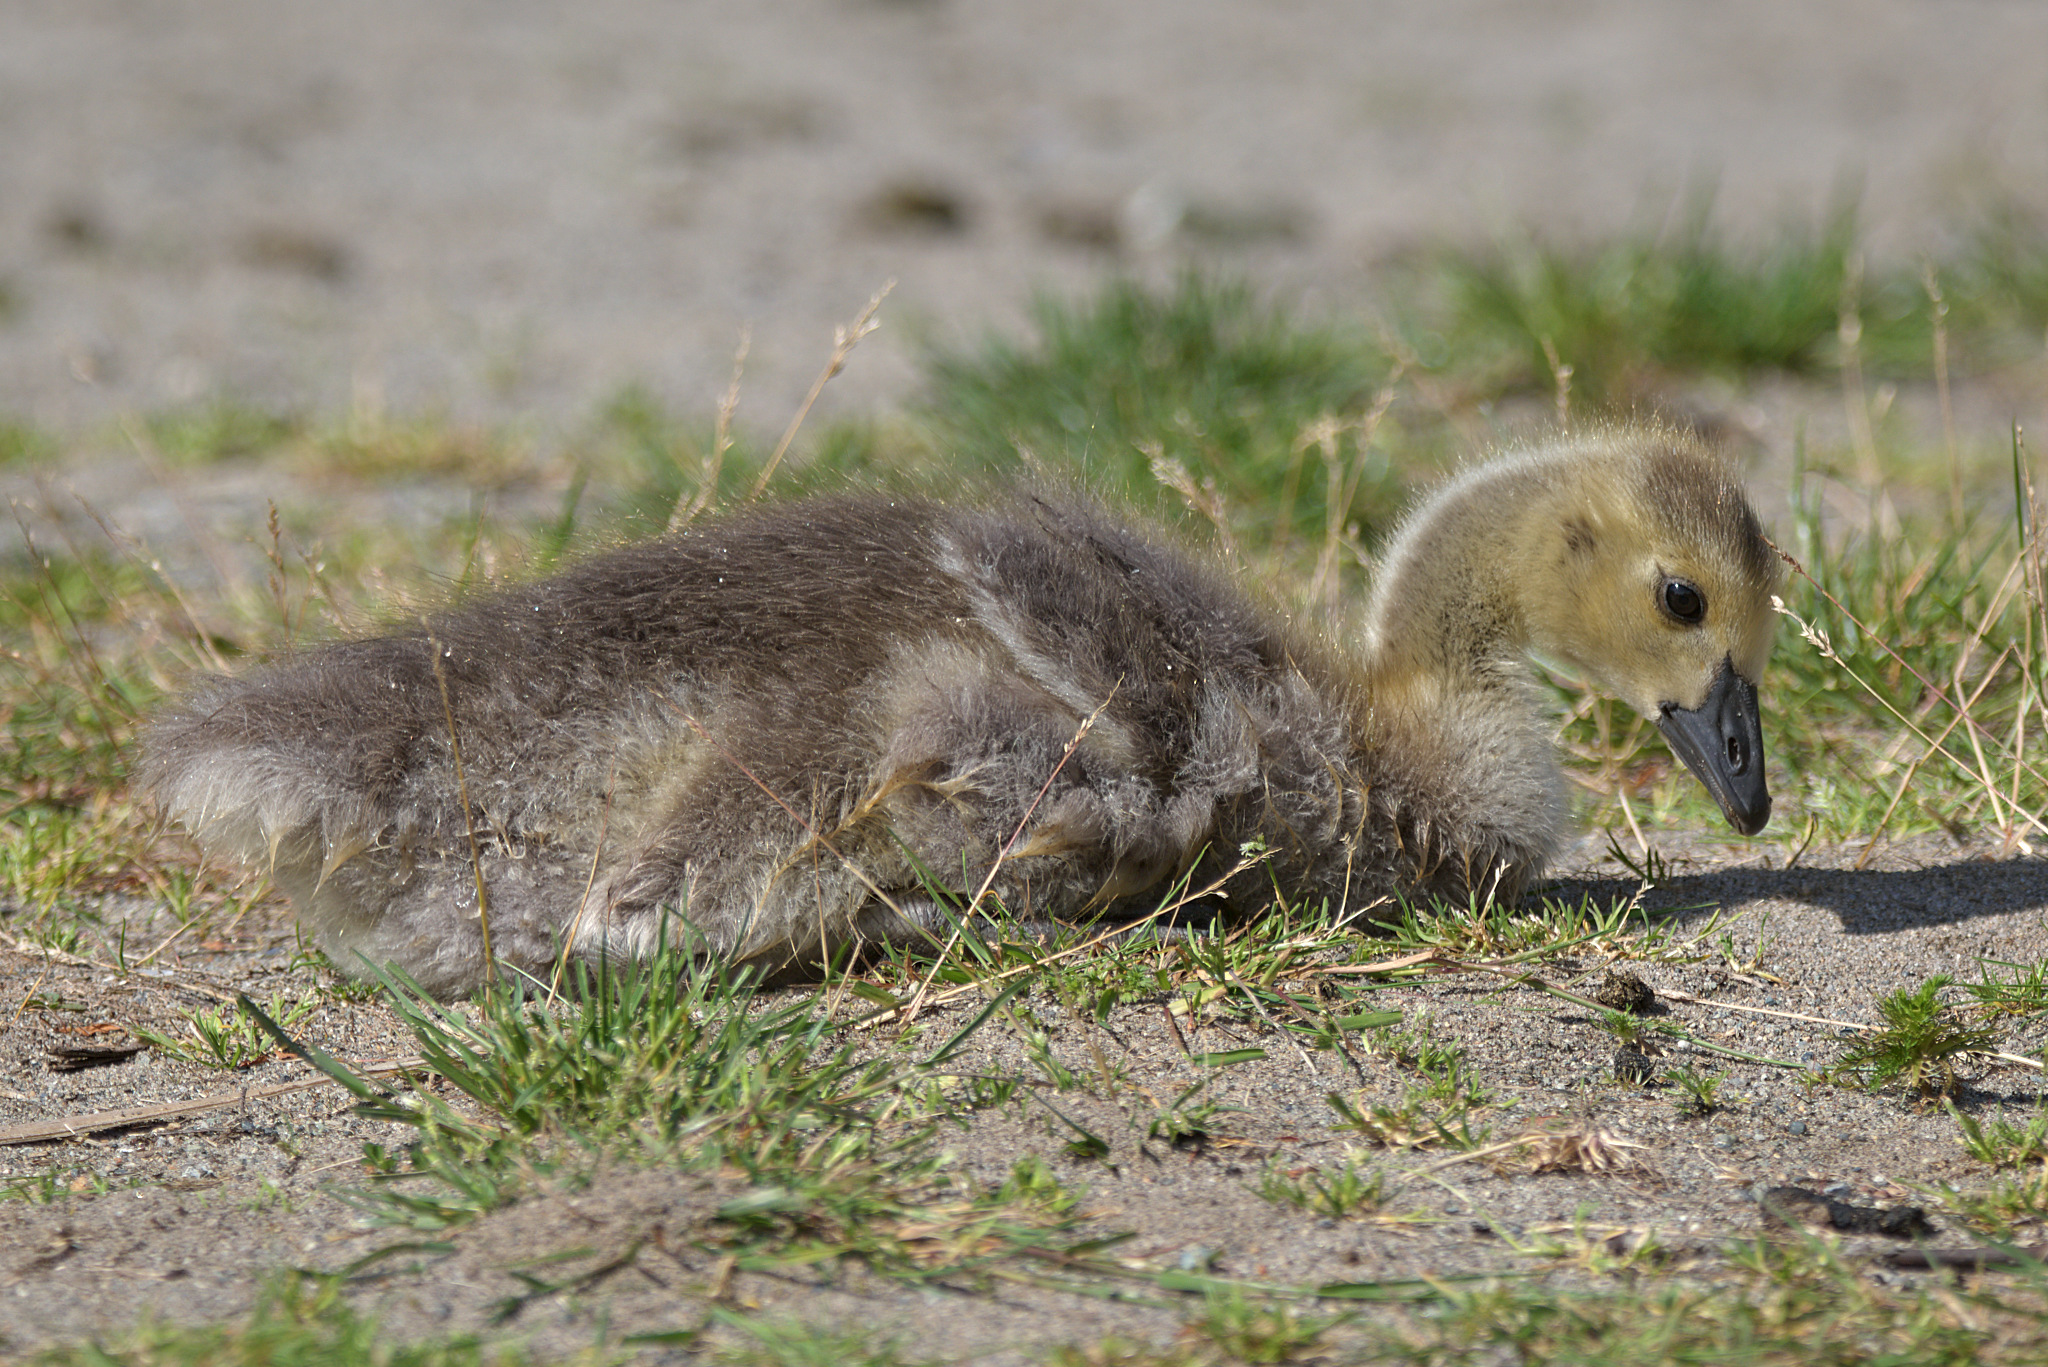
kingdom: Animalia
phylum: Chordata
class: Aves
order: Anseriformes
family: Anatidae
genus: Branta
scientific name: Branta canadensis
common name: Canada goose
